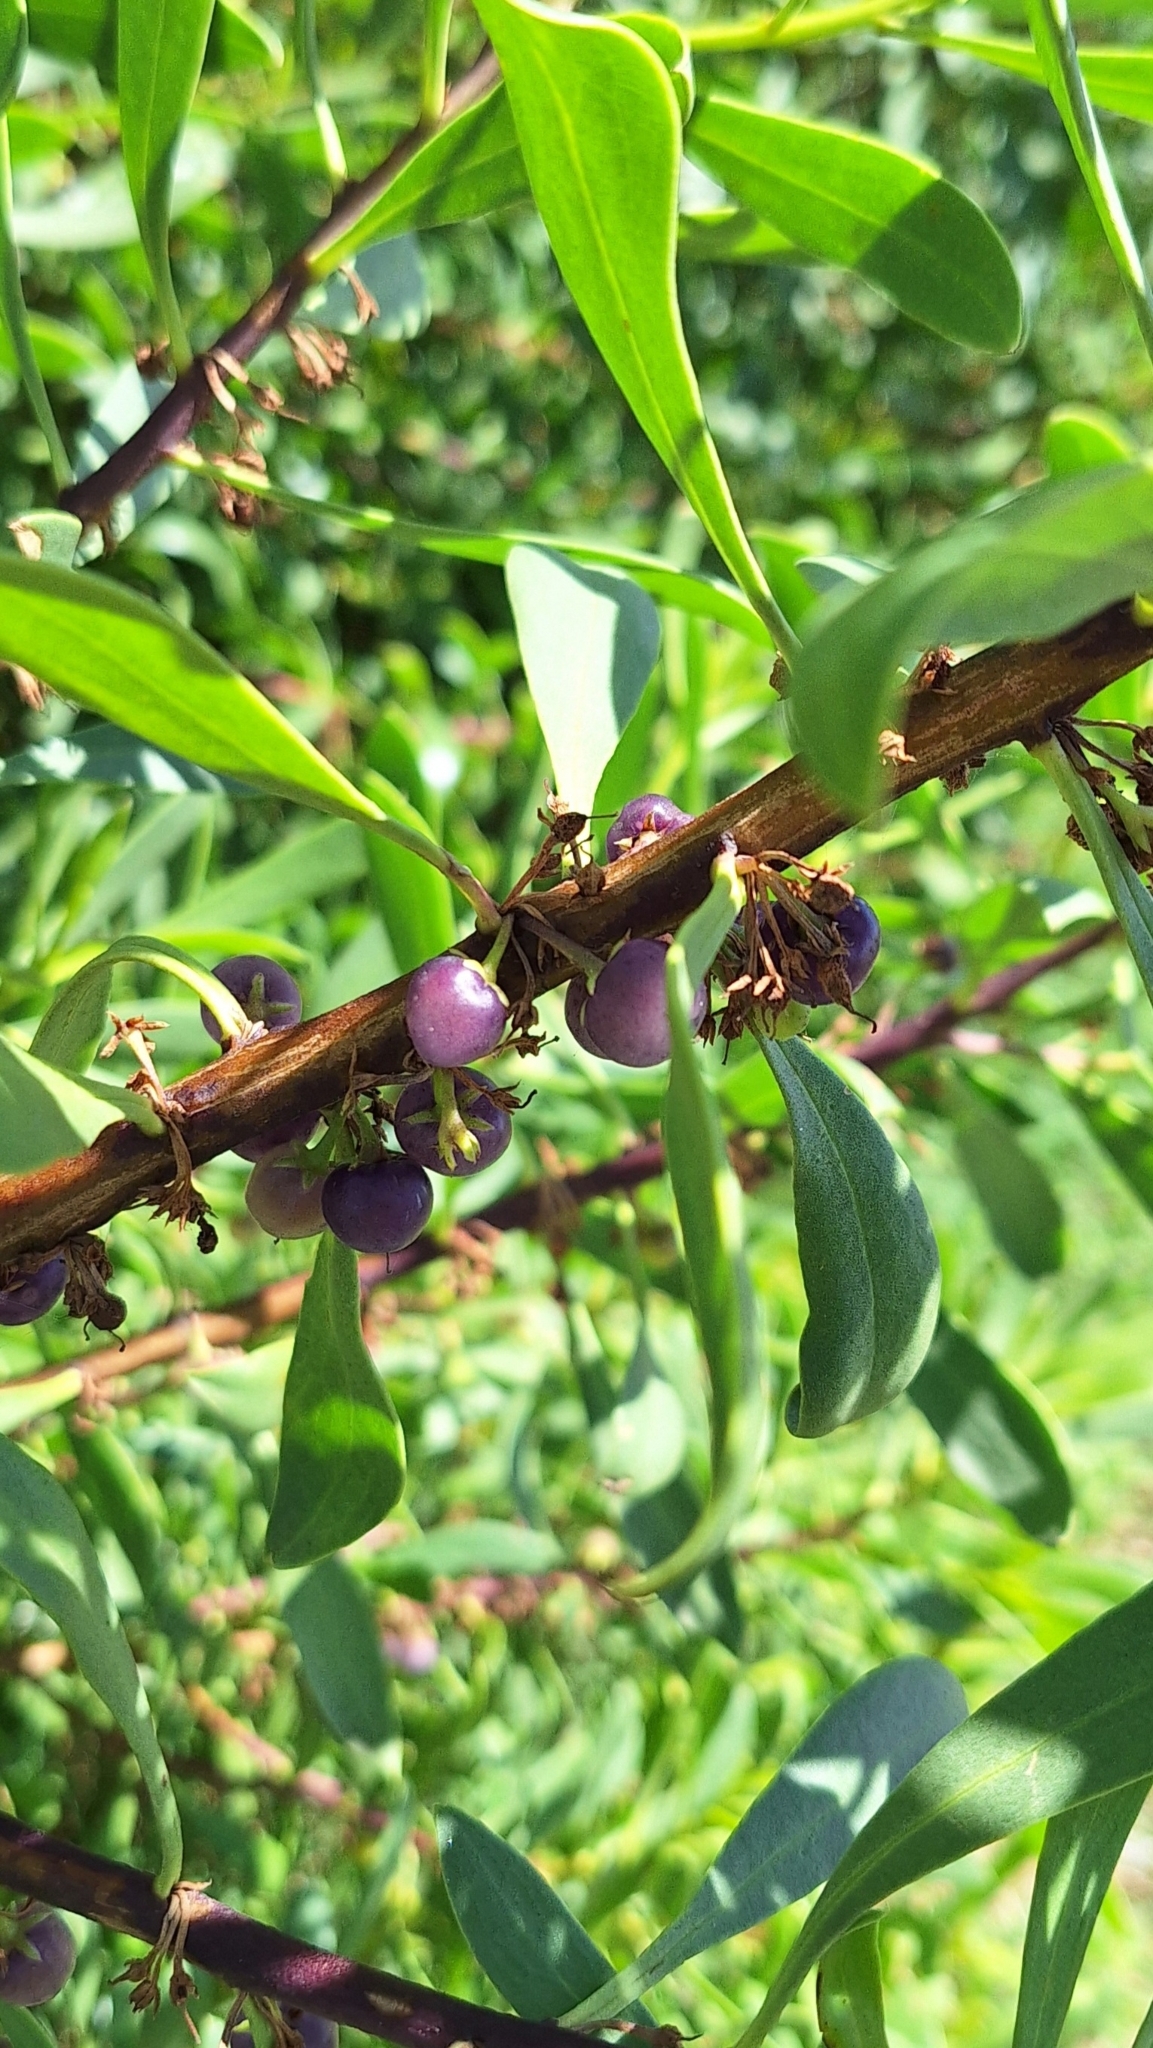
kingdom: Plantae
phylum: Tracheophyta
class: Magnoliopsida
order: Lamiales
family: Scrophulariaceae
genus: Myoporum
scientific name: Myoporum insulare
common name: Common boobialla
